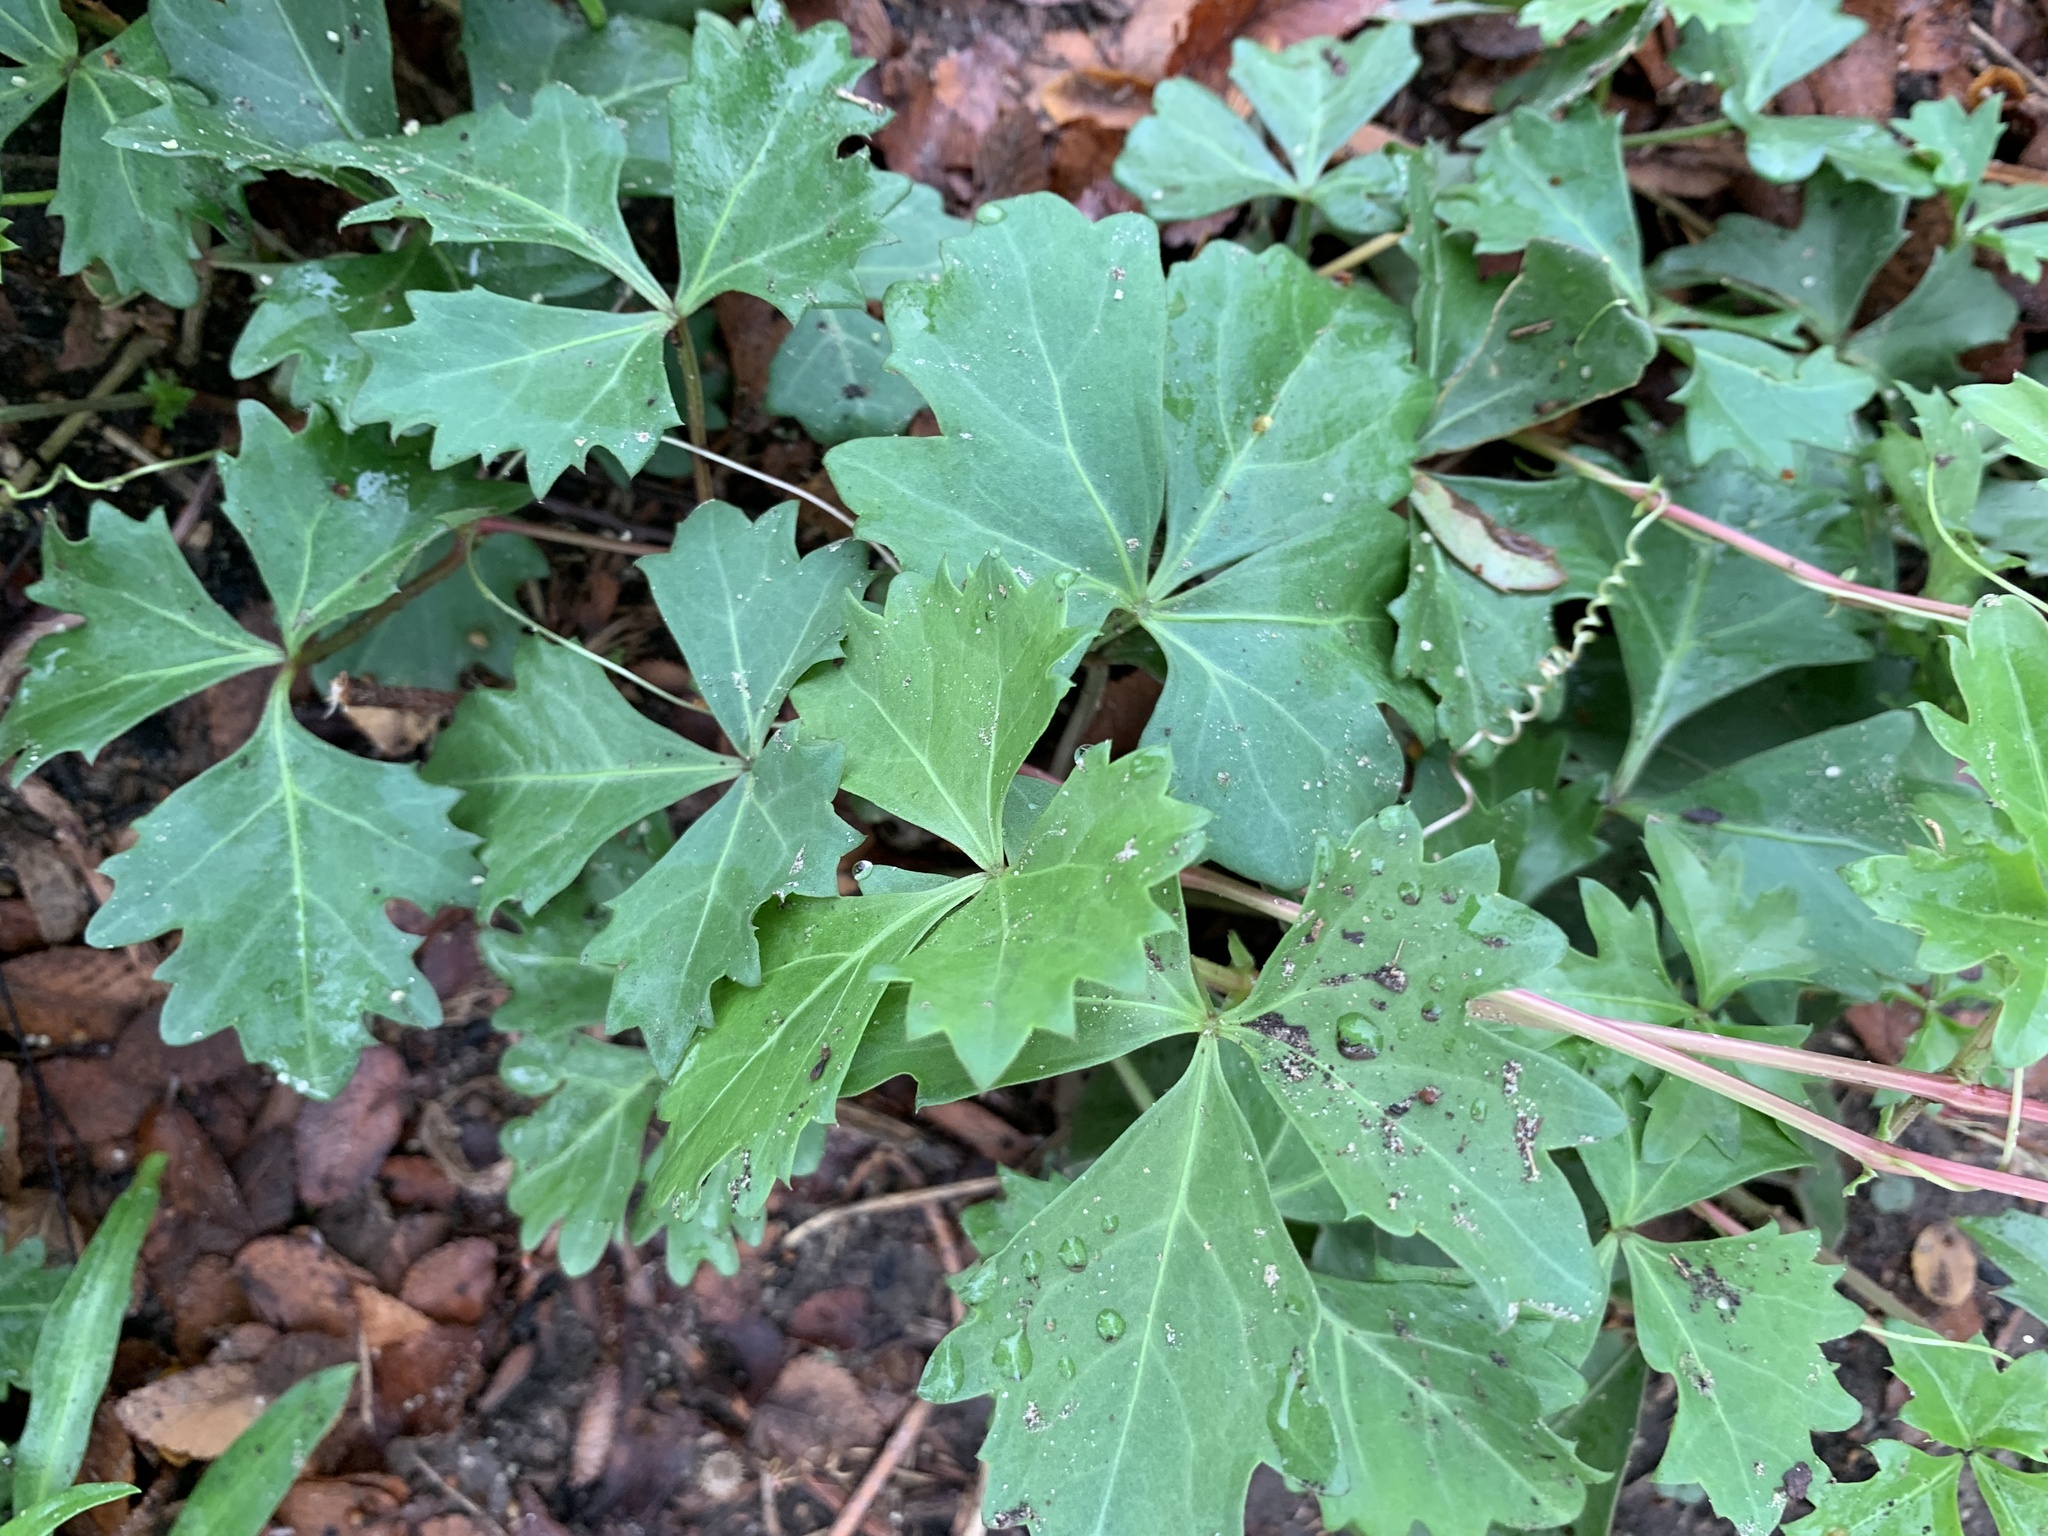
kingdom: Plantae
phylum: Tracheophyta
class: Magnoliopsida
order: Vitales
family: Vitaceae
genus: Cissus
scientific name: Cissus trifoliata
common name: Vine-sorrel
